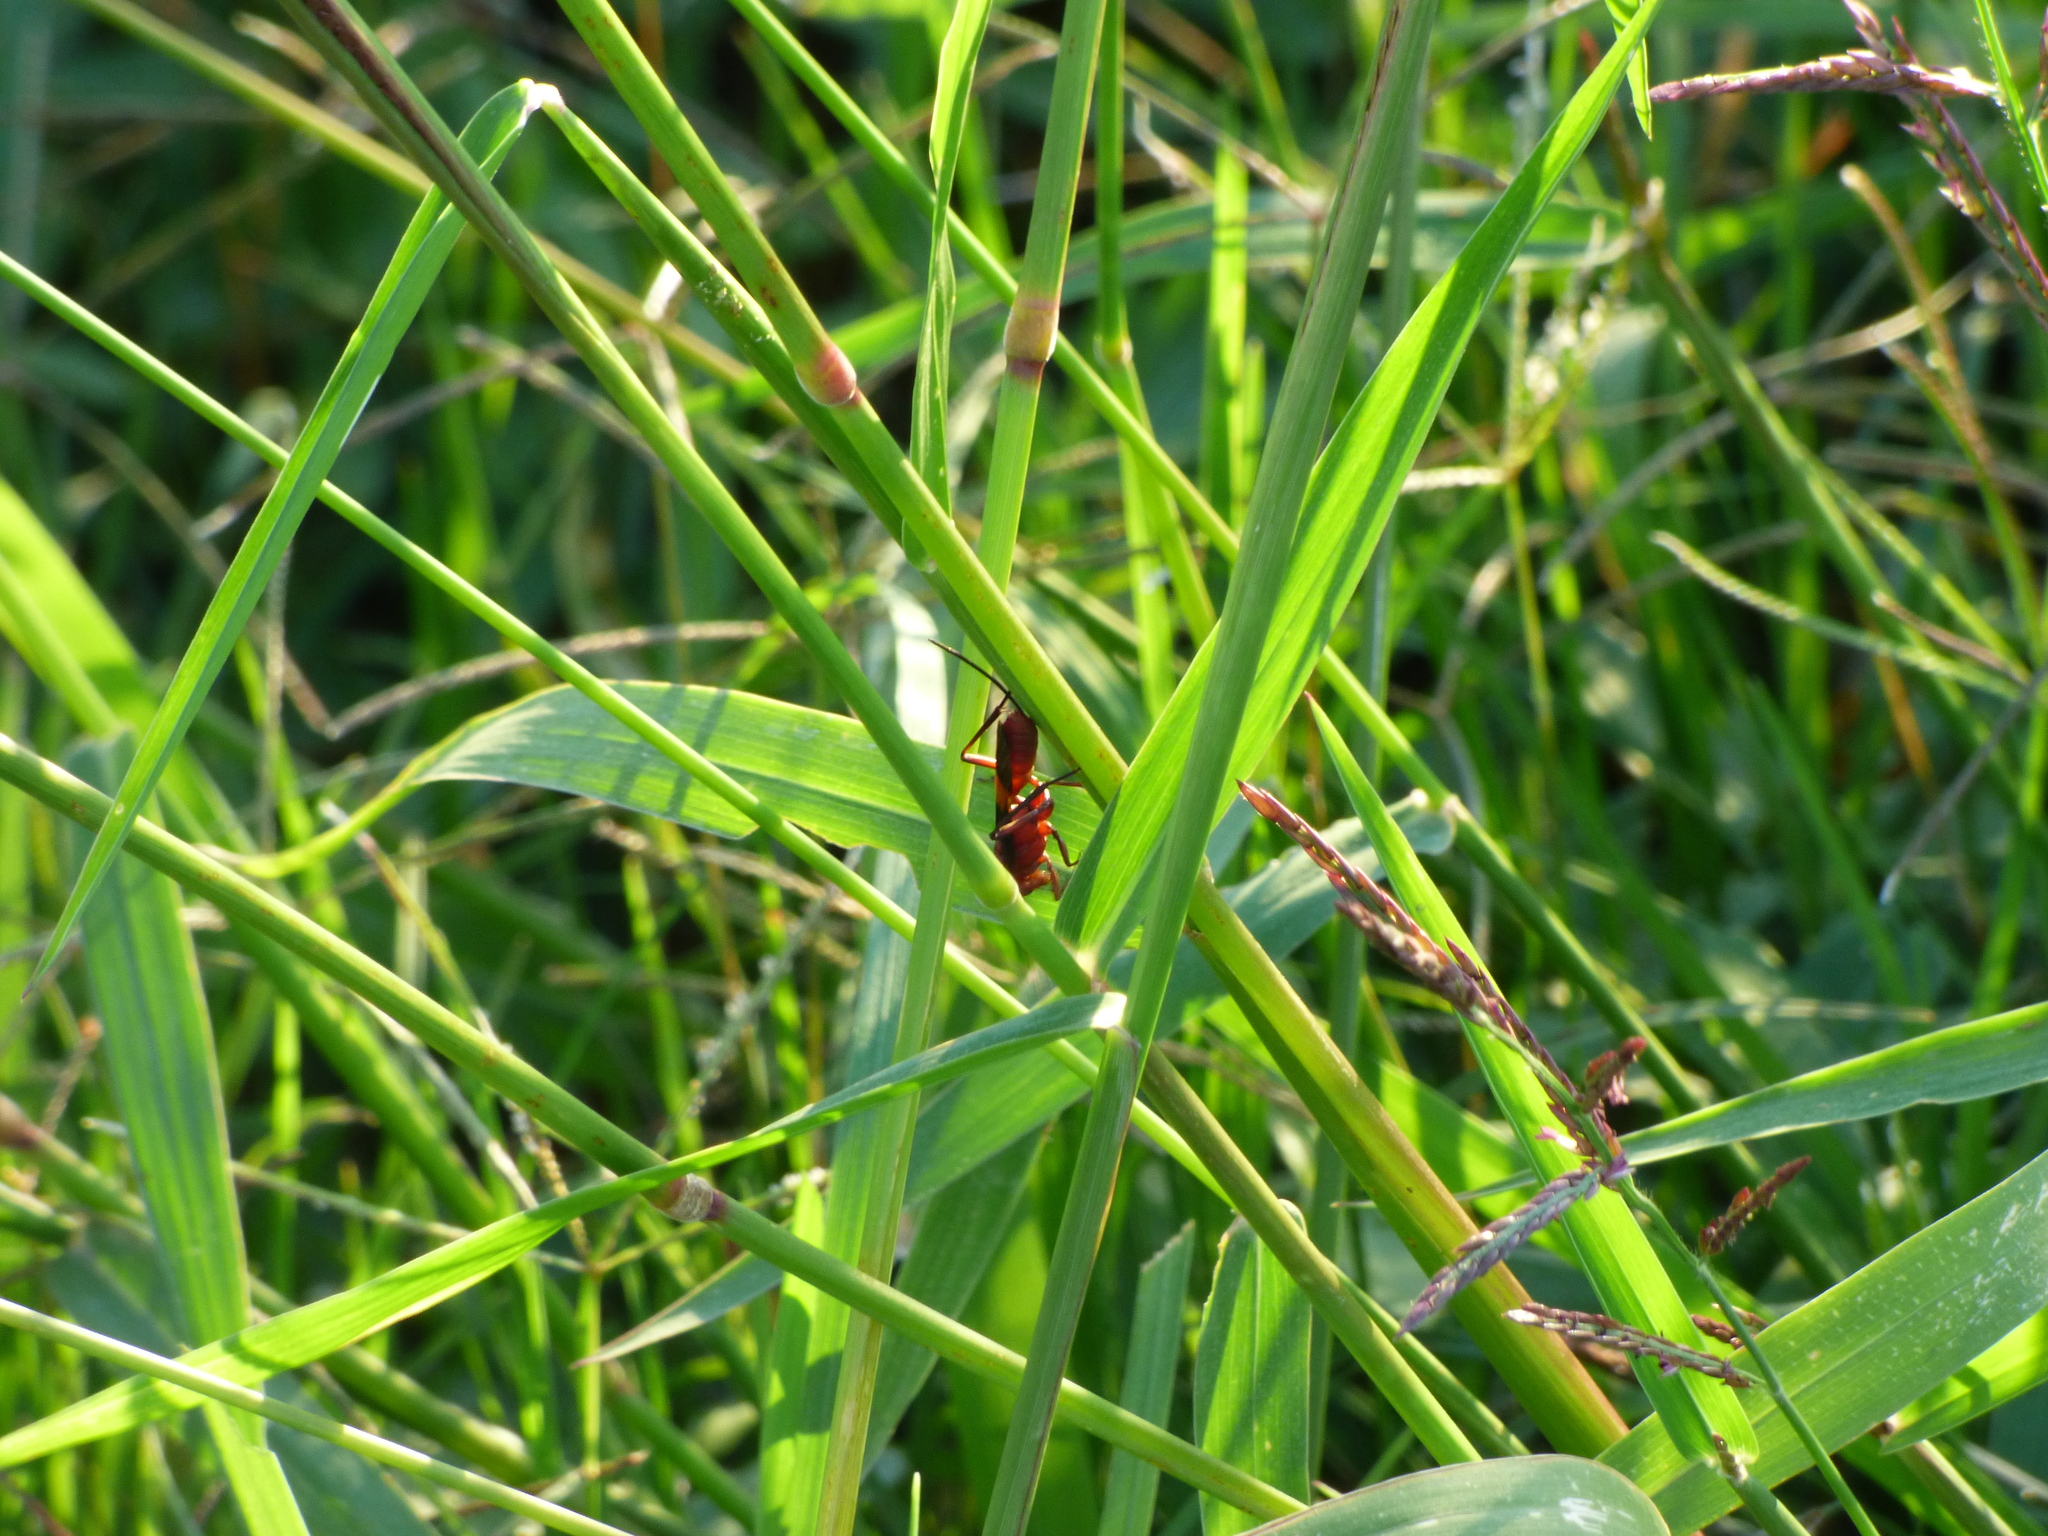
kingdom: Animalia
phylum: Arthropoda
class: Insecta
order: Hymenoptera
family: Ichneumonidae
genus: Compsocryptus
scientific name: Compsocryptus melanostigma
